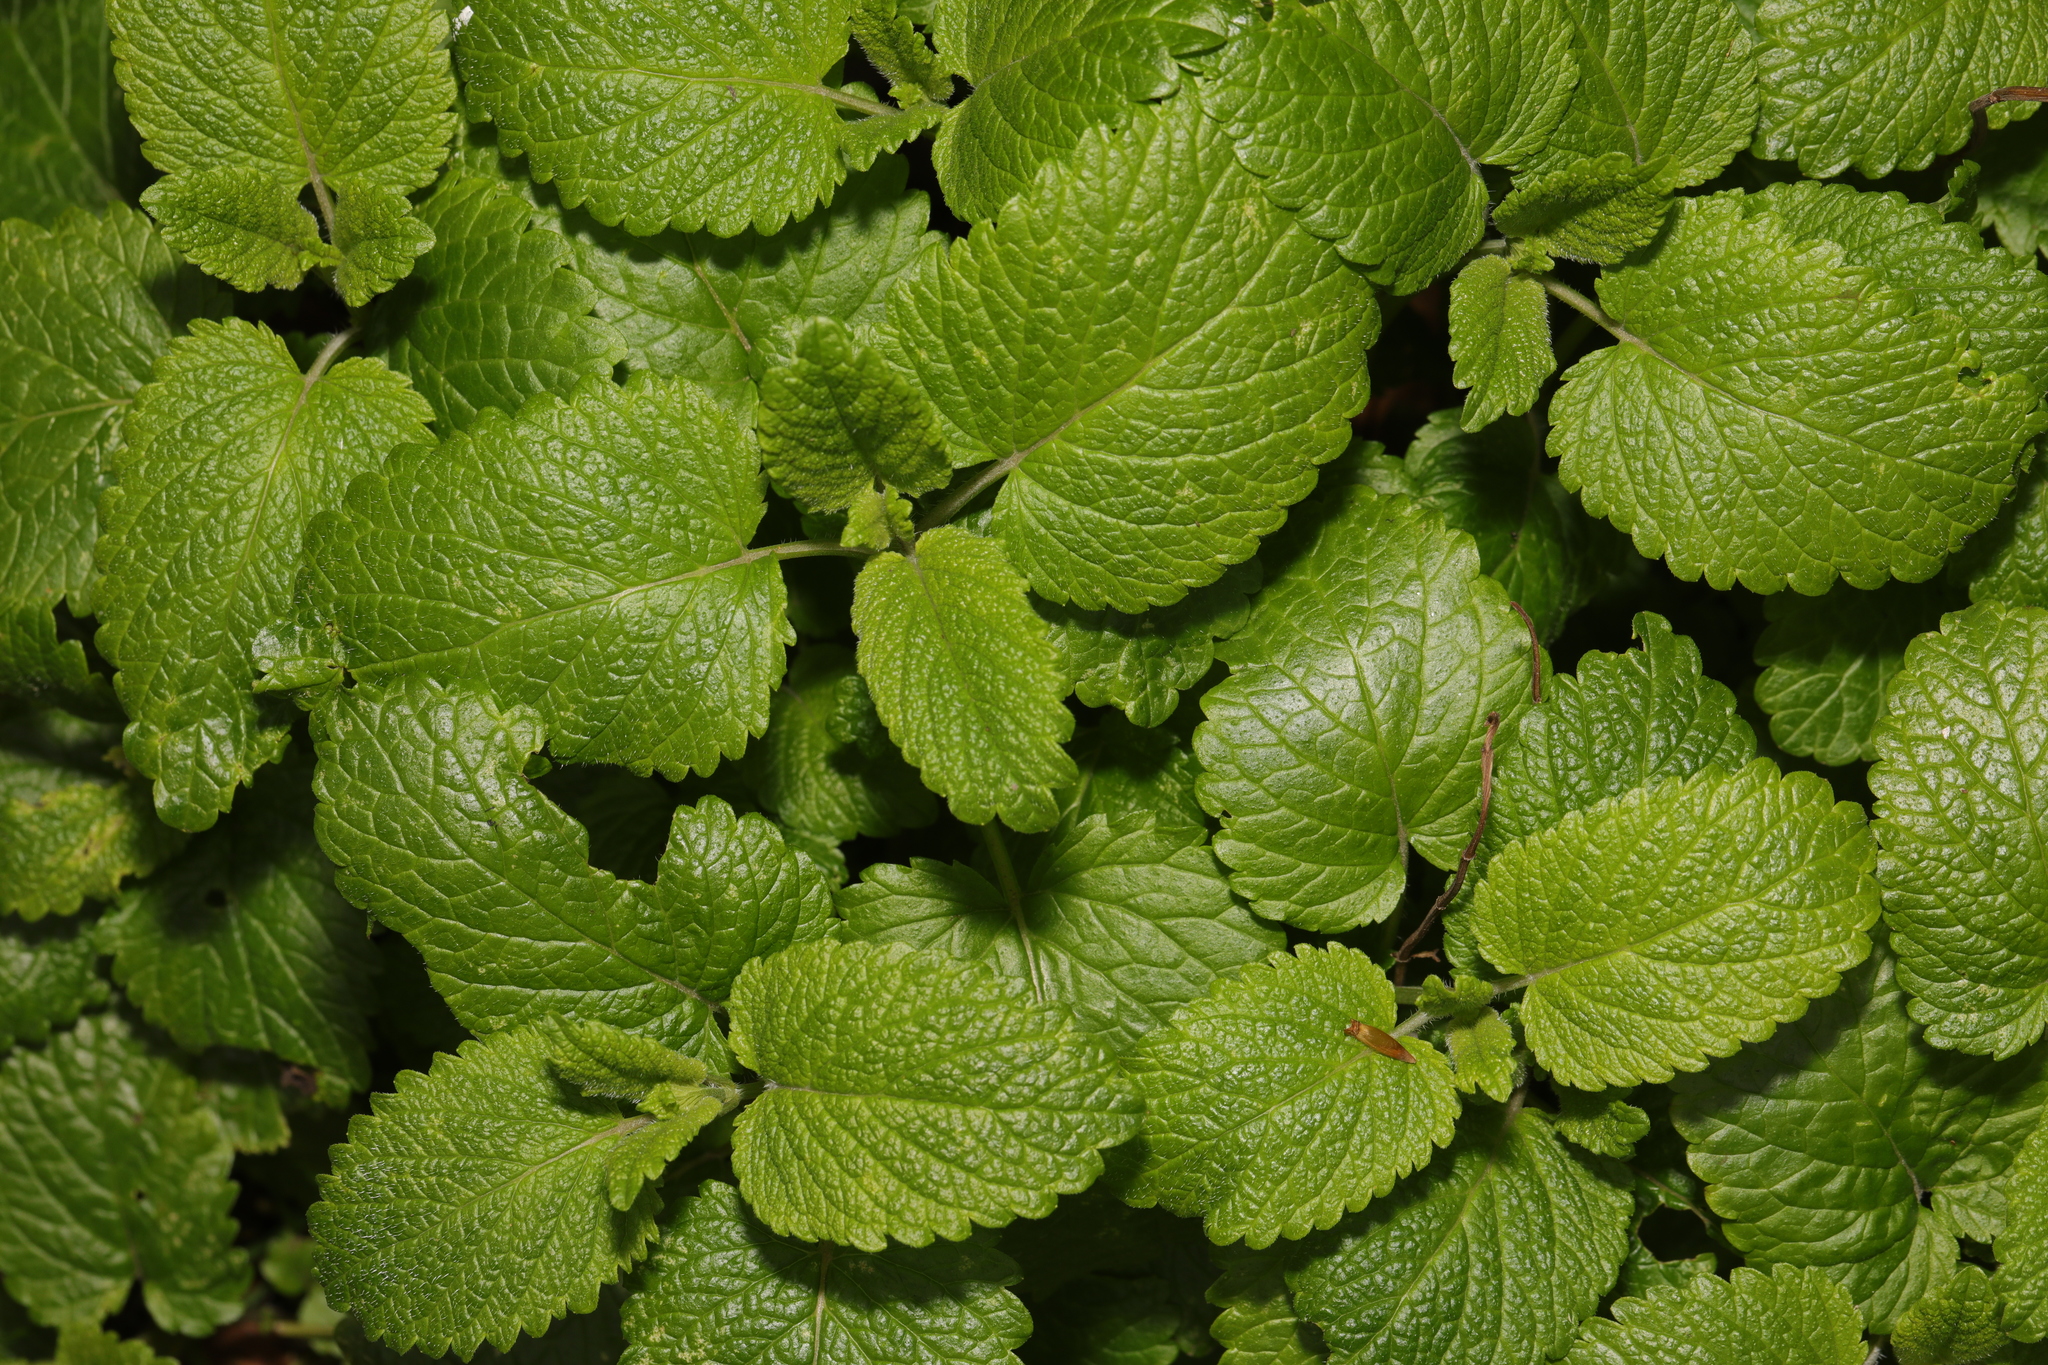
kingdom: Plantae
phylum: Tracheophyta
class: Magnoliopsida
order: Lamiales
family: Lamiaceae
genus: Melissa
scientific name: Melissa officinalis
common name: Balm
